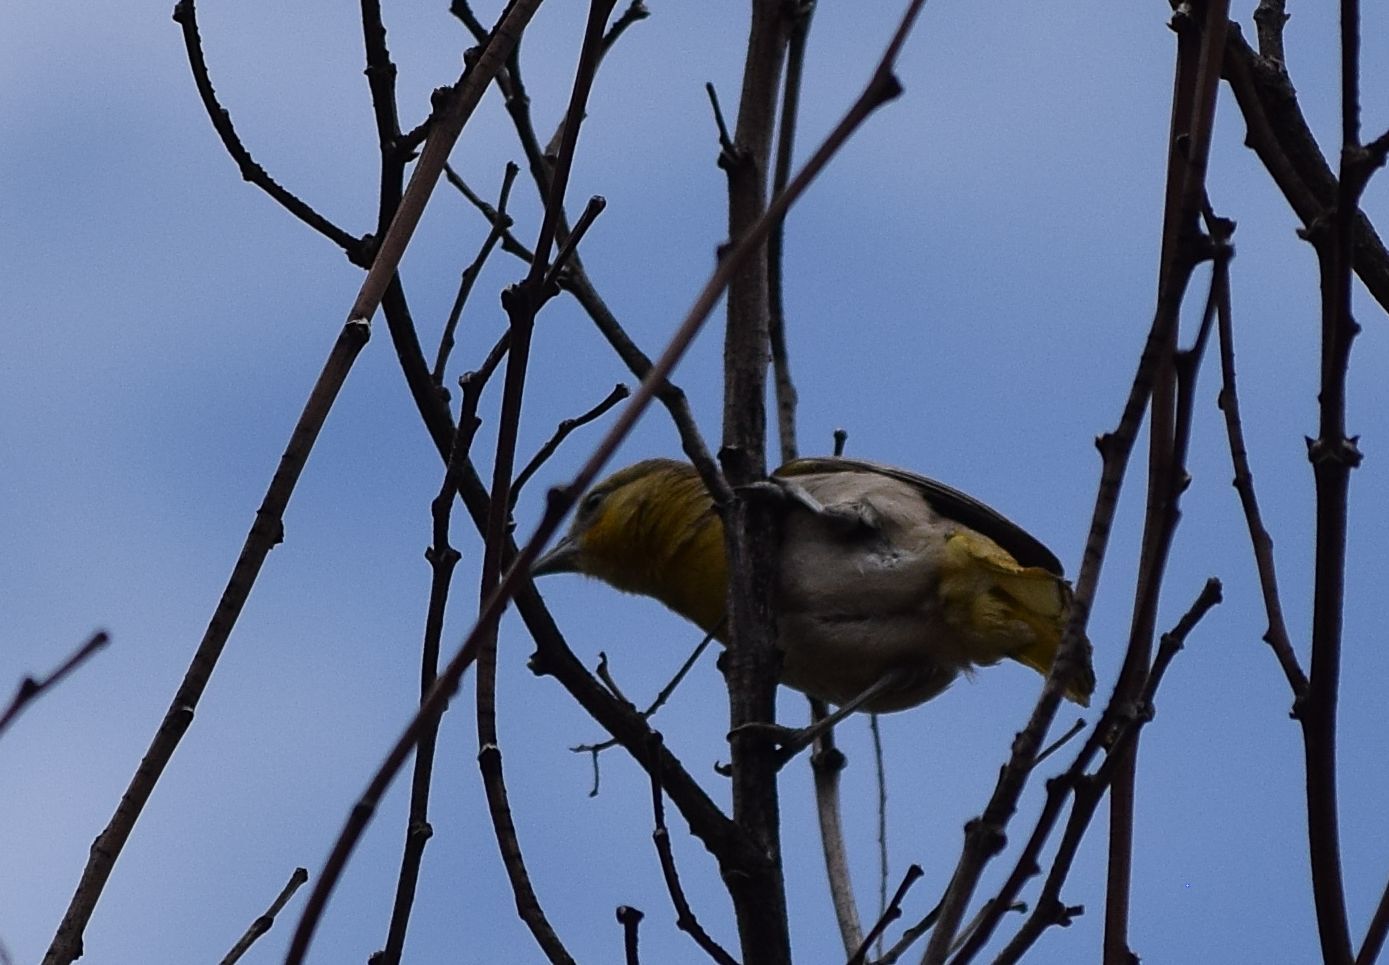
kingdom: Animalia
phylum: Chordata
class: Aves
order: Passeriformes
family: Icteridae
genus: Icterus
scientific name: Icterus bullockii
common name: Bullock's oriole
